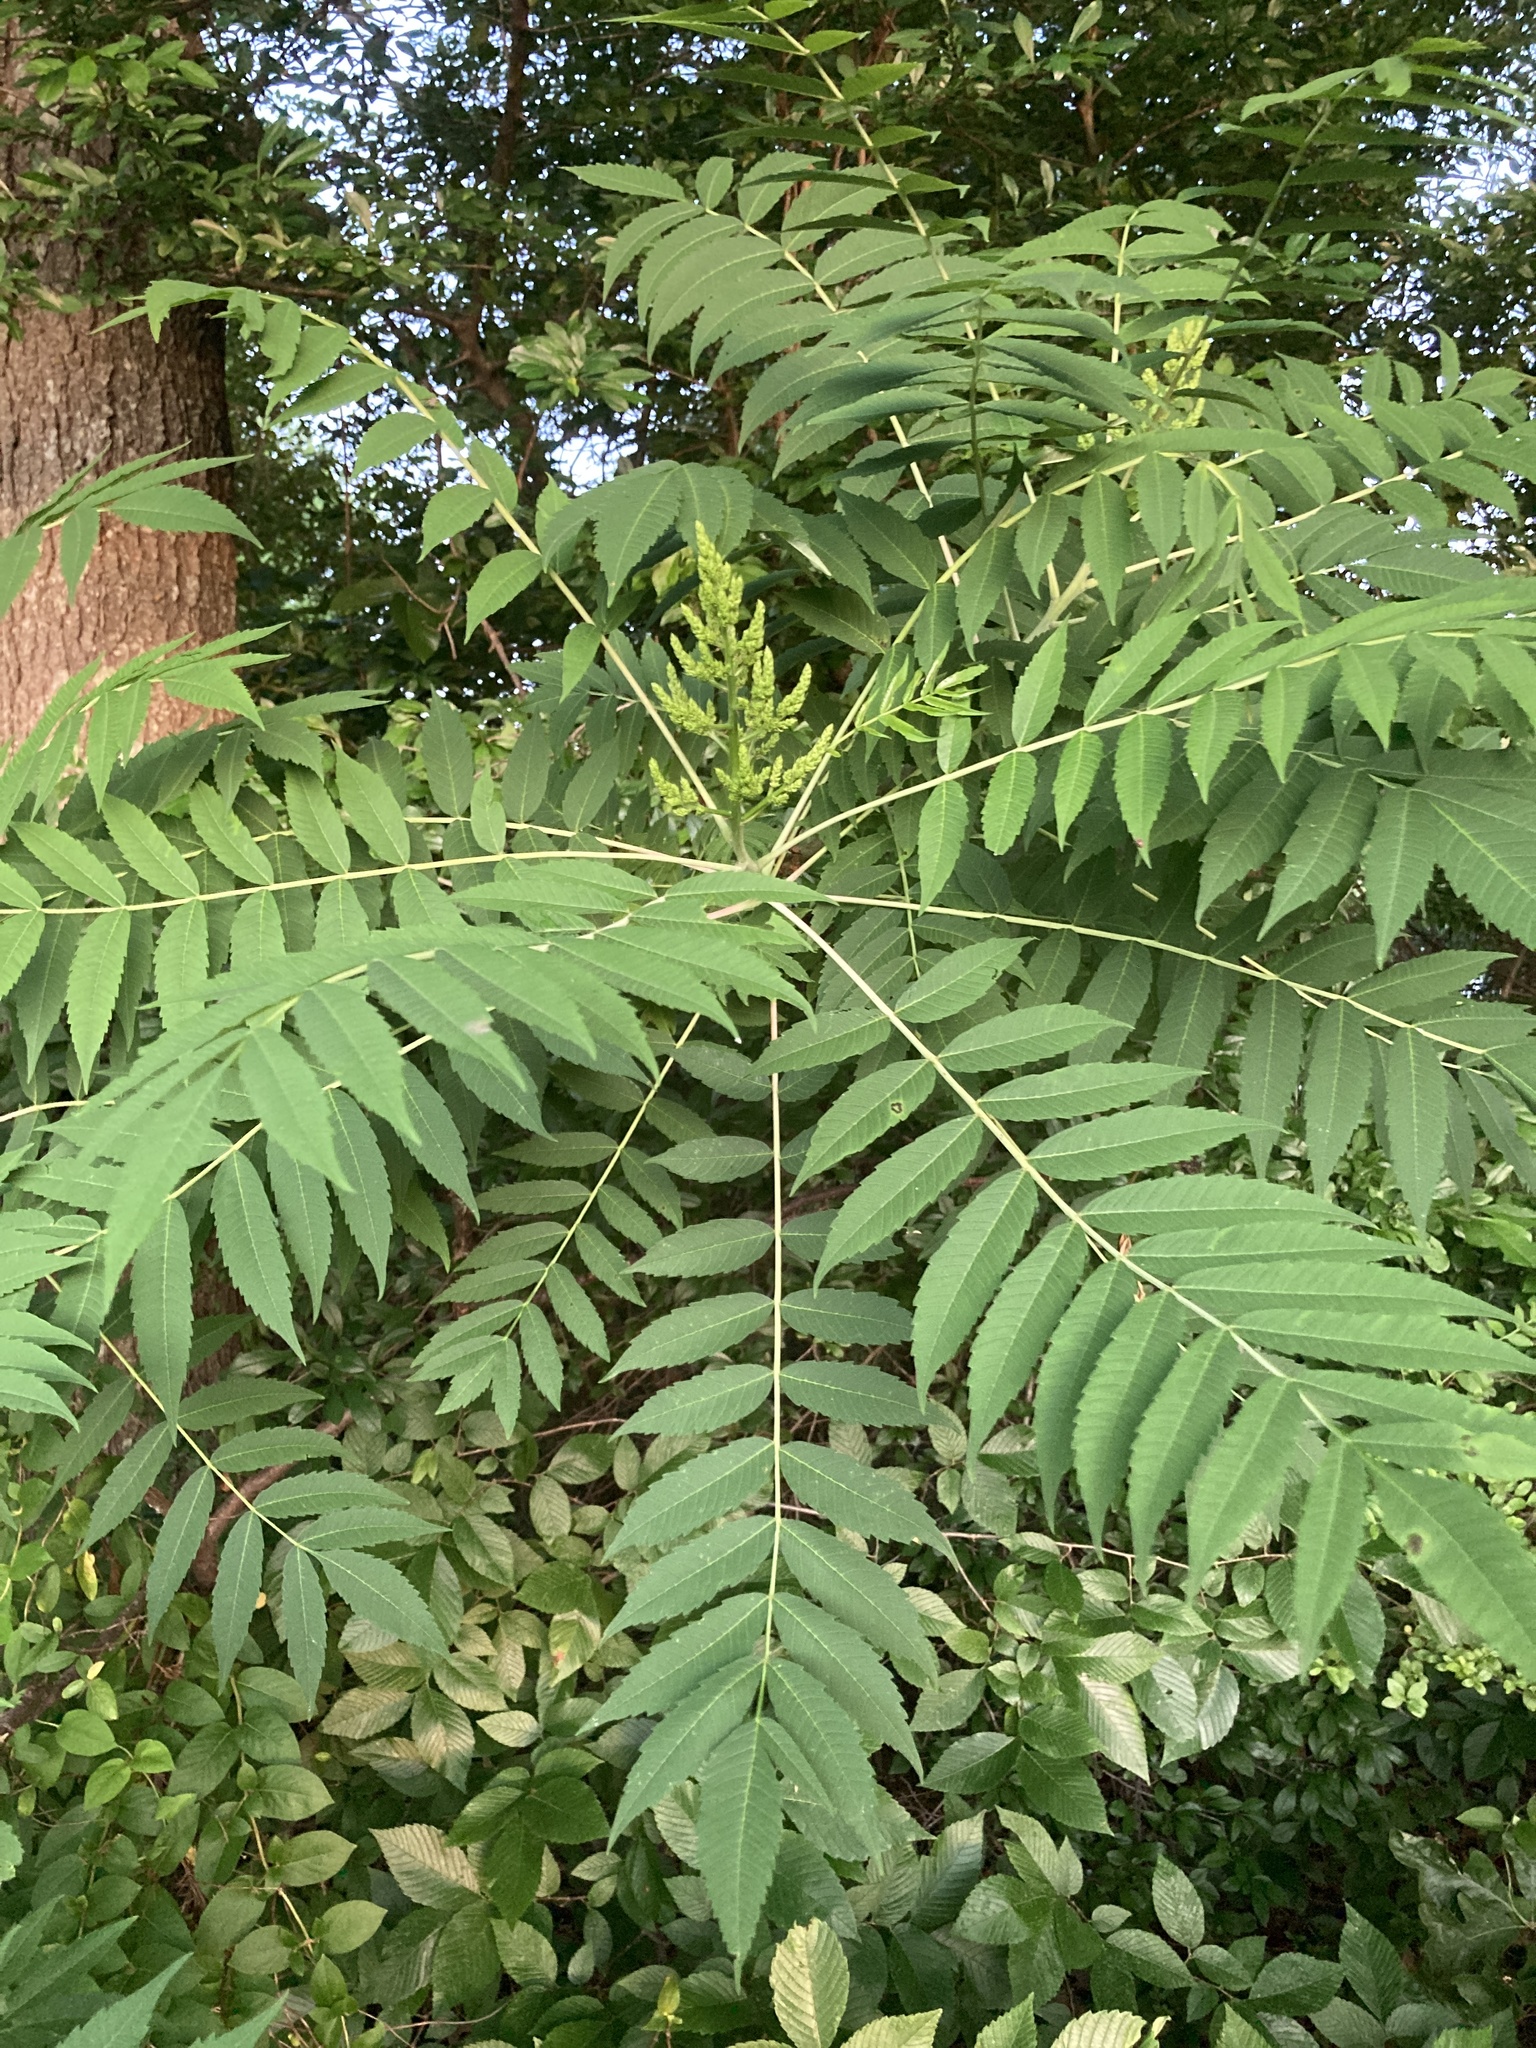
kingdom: Plantae
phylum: Tracheophyta
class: Magnoliopsida
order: Sapindales
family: Anacardiaceae
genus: Rhus
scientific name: Rhus glabra
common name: Scarlet sumac
